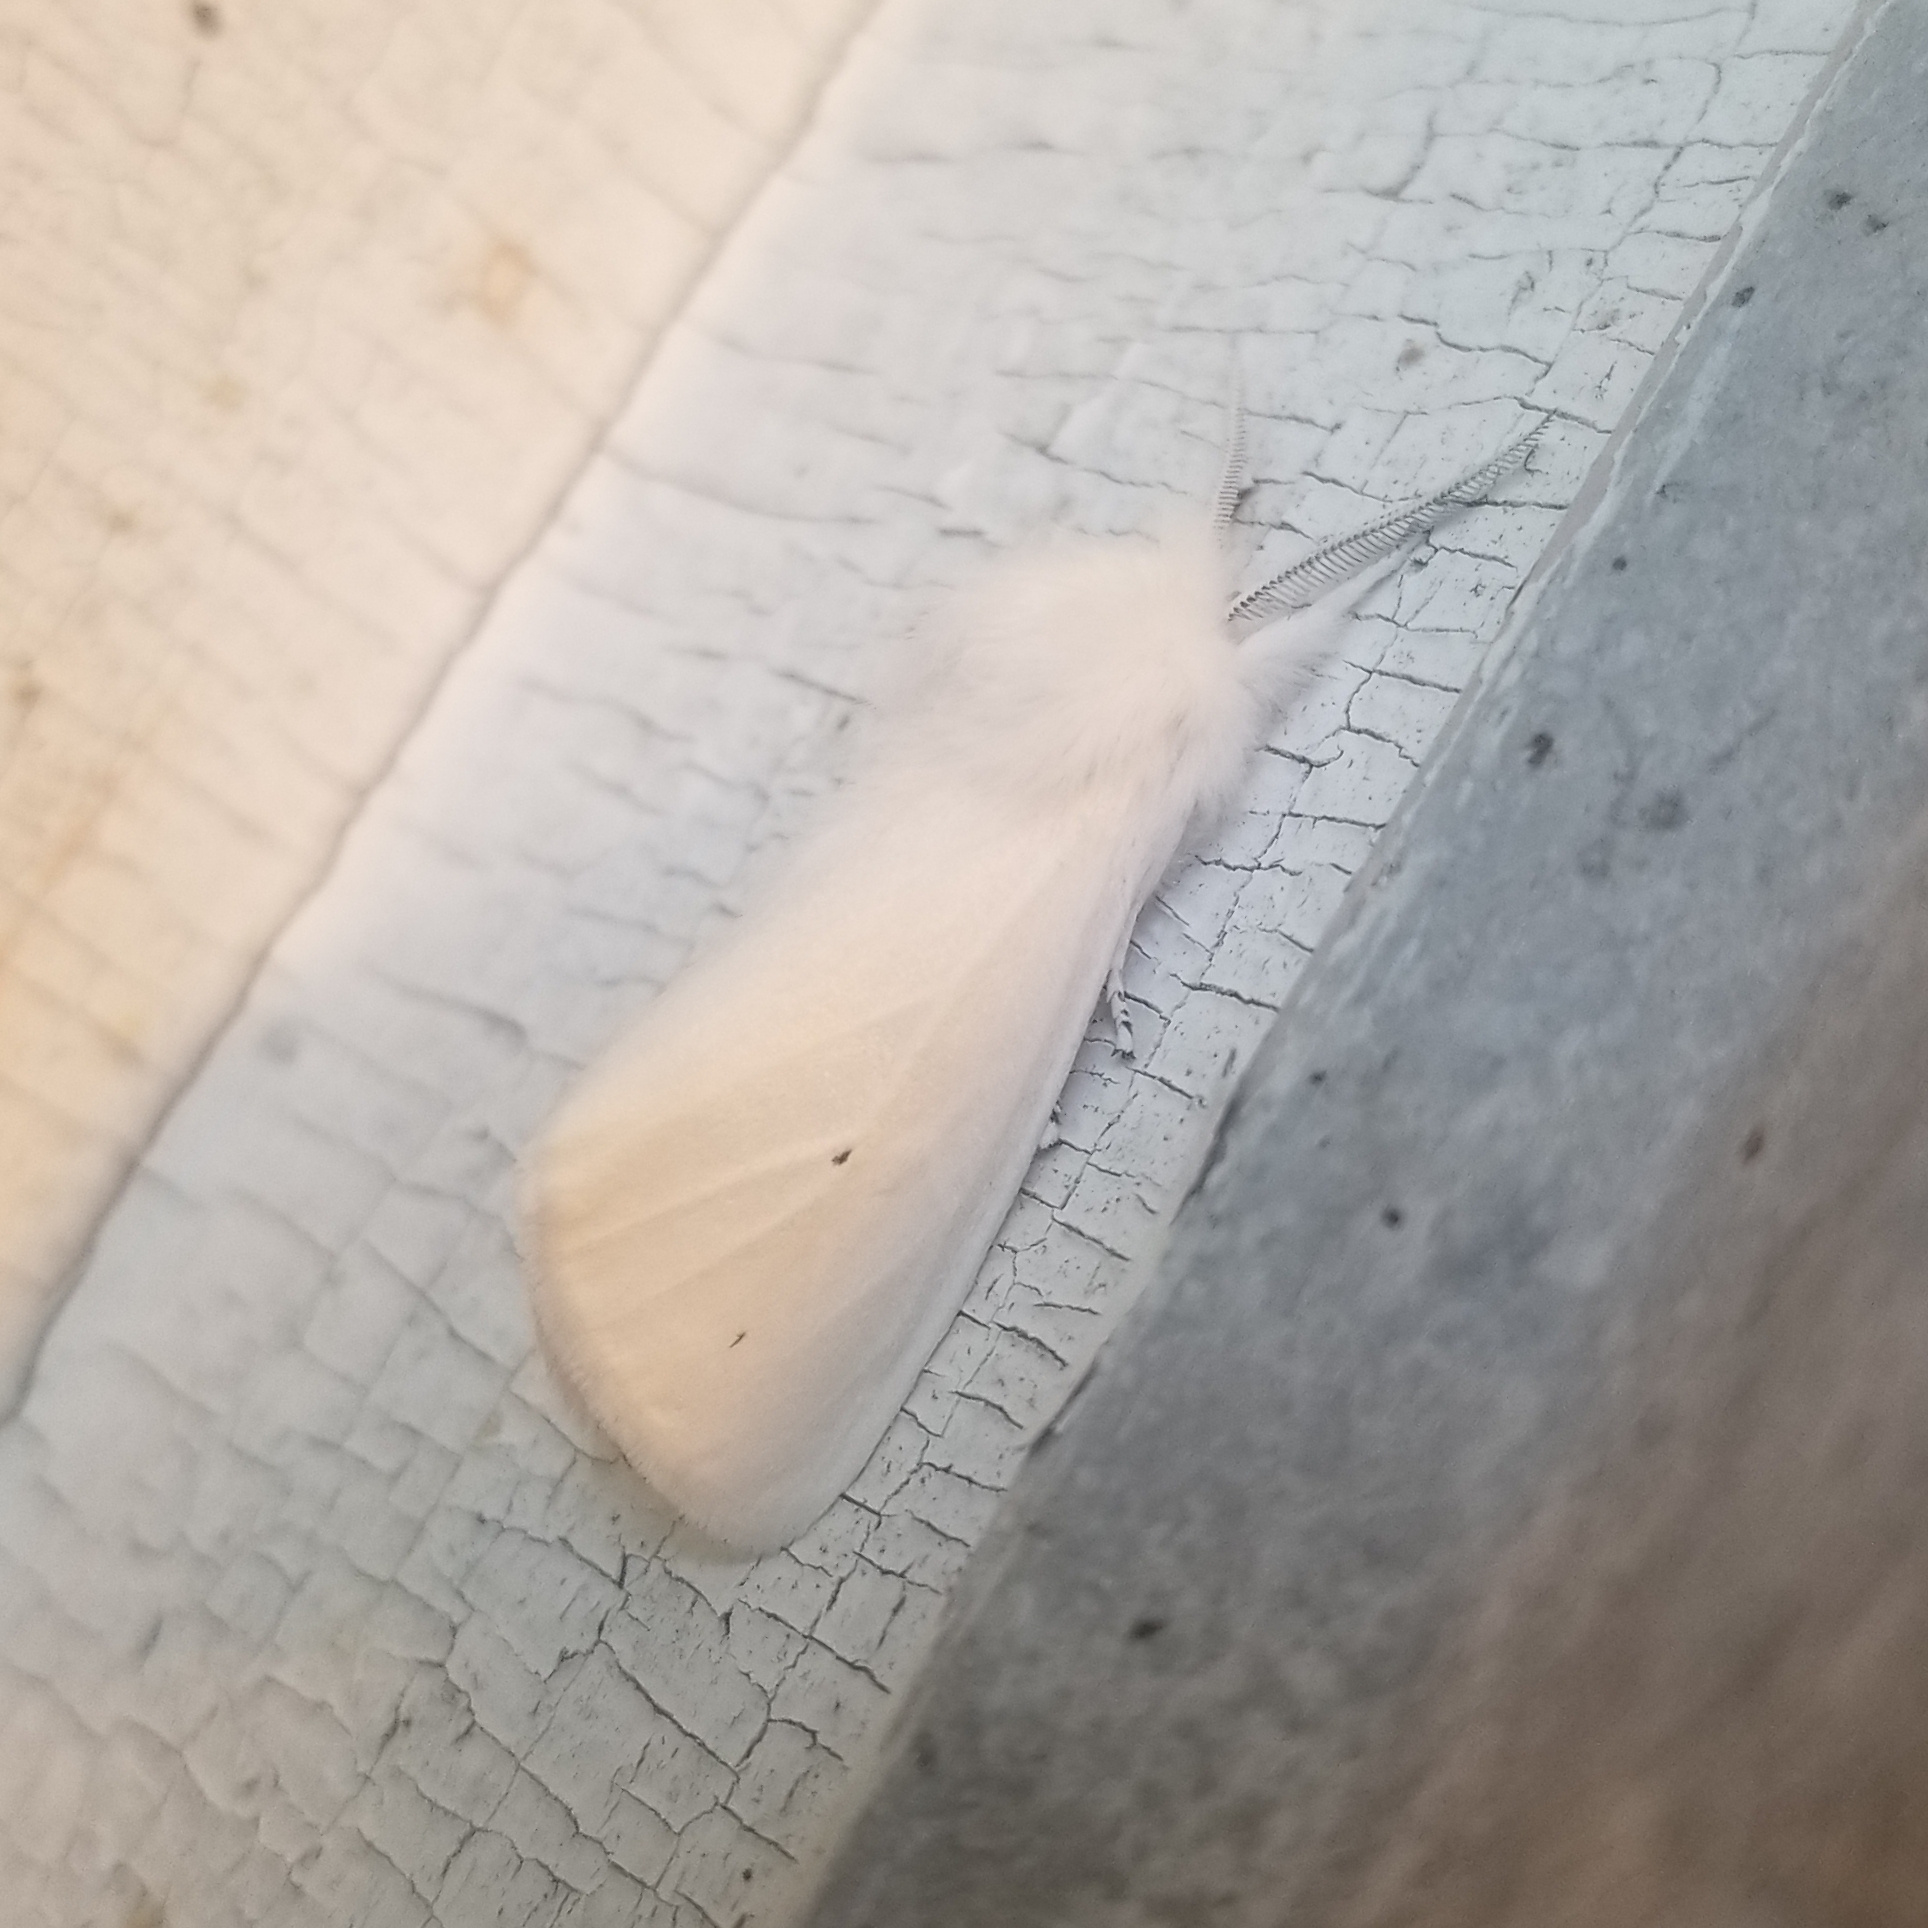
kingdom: Animalia
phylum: Arthropoda
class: Insecta
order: Lepidoptera
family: Erebidae
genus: Spilosoma
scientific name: Spilosoma virginica
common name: Virginia tiger moth
